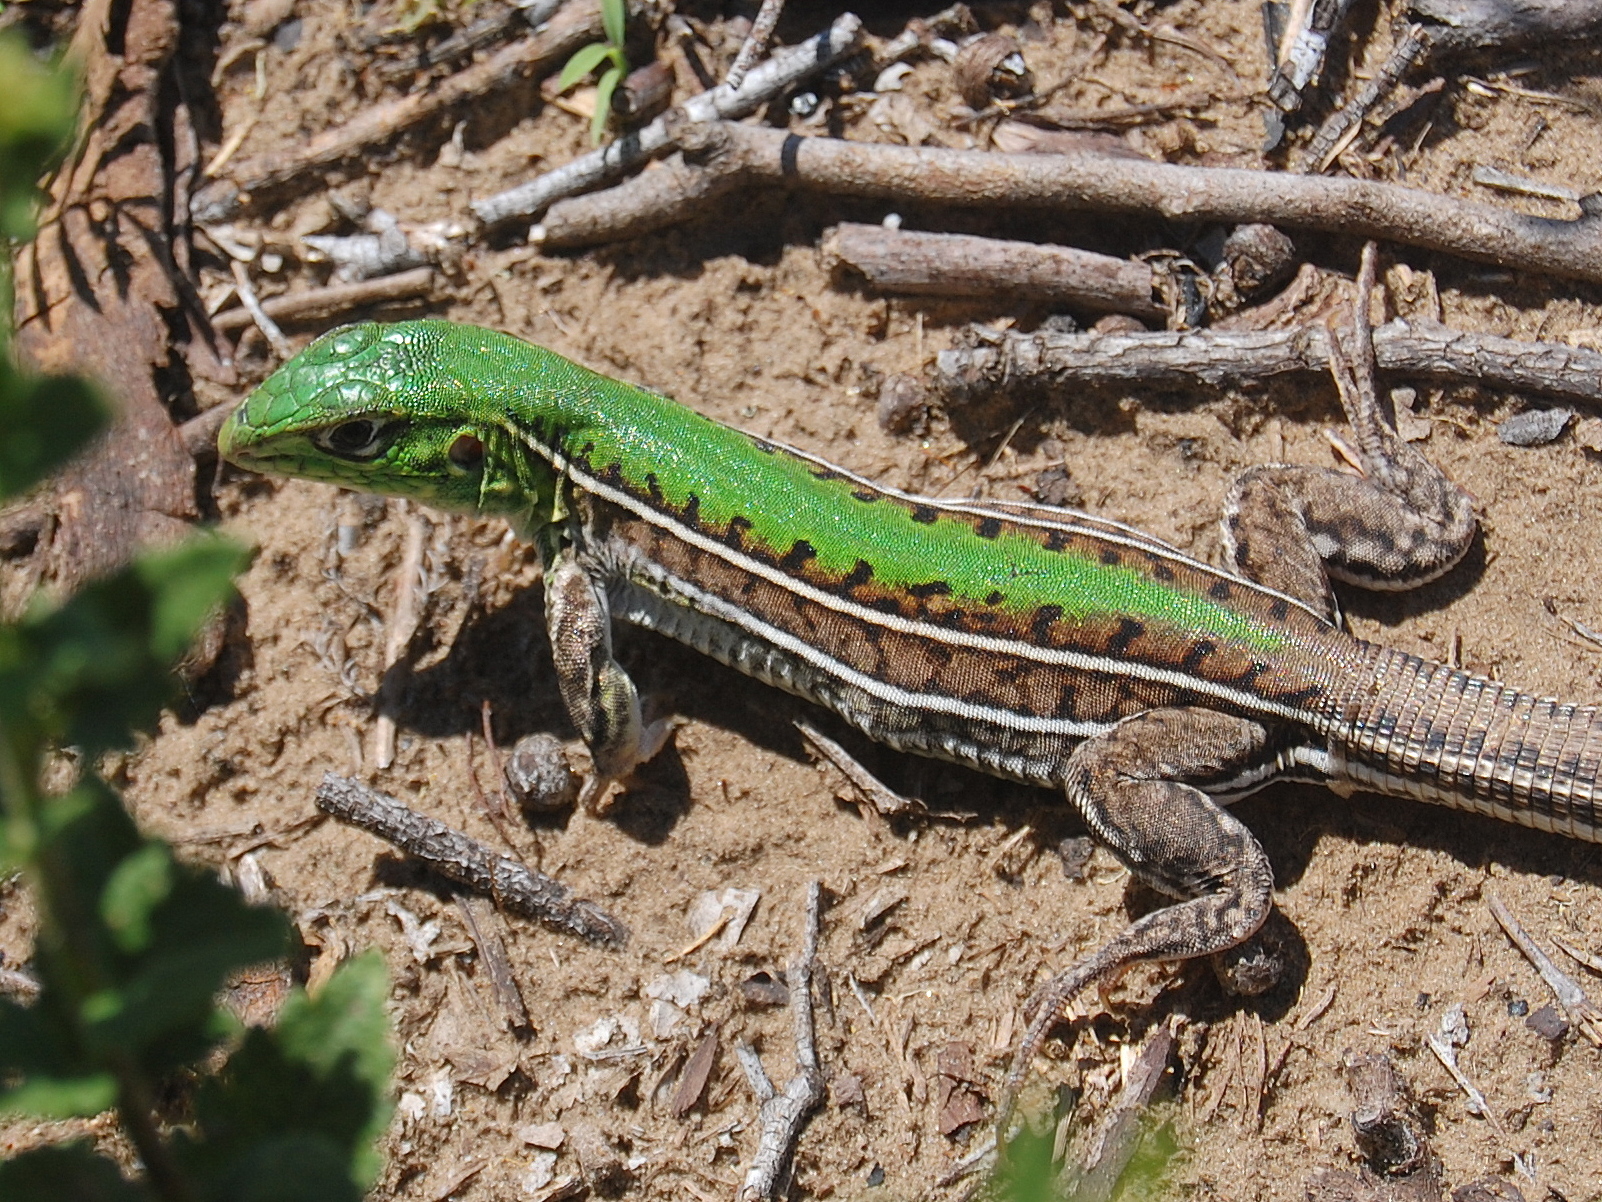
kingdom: Animalia
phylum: Chordata
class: Squamata
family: Teiidae
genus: Teius
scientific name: Teius oculatus
